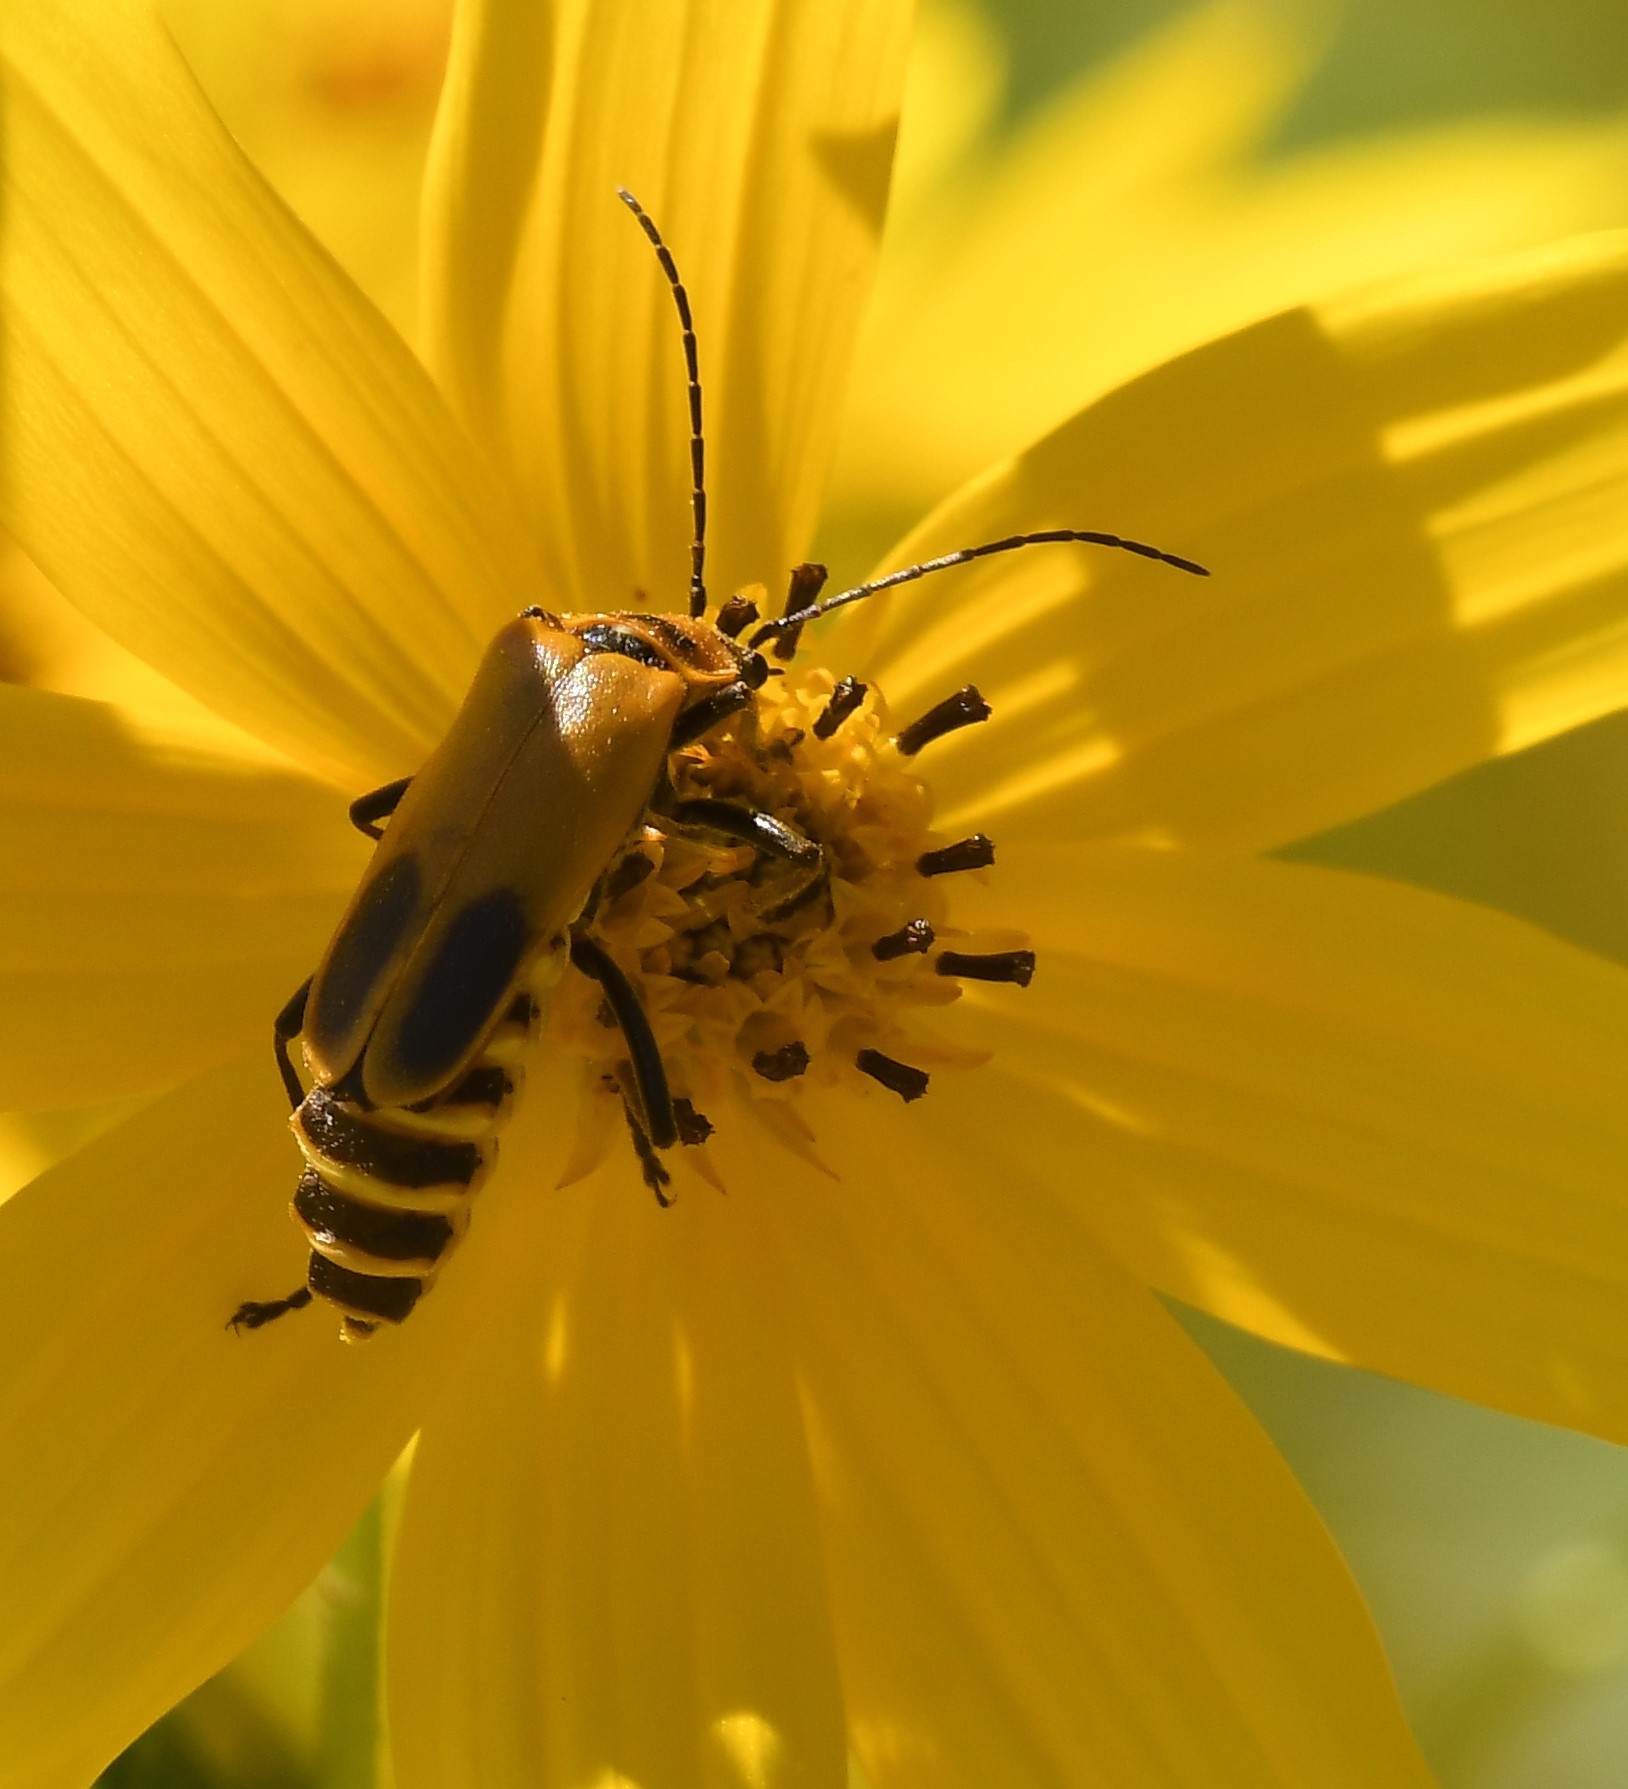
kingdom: Animalia
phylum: Arthropoda
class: Insecta
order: Coleoptera
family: Cantharidae
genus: Chauliognathus
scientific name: Chauliognathus pensylvanicus
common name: Goldenrod soldier beetle
